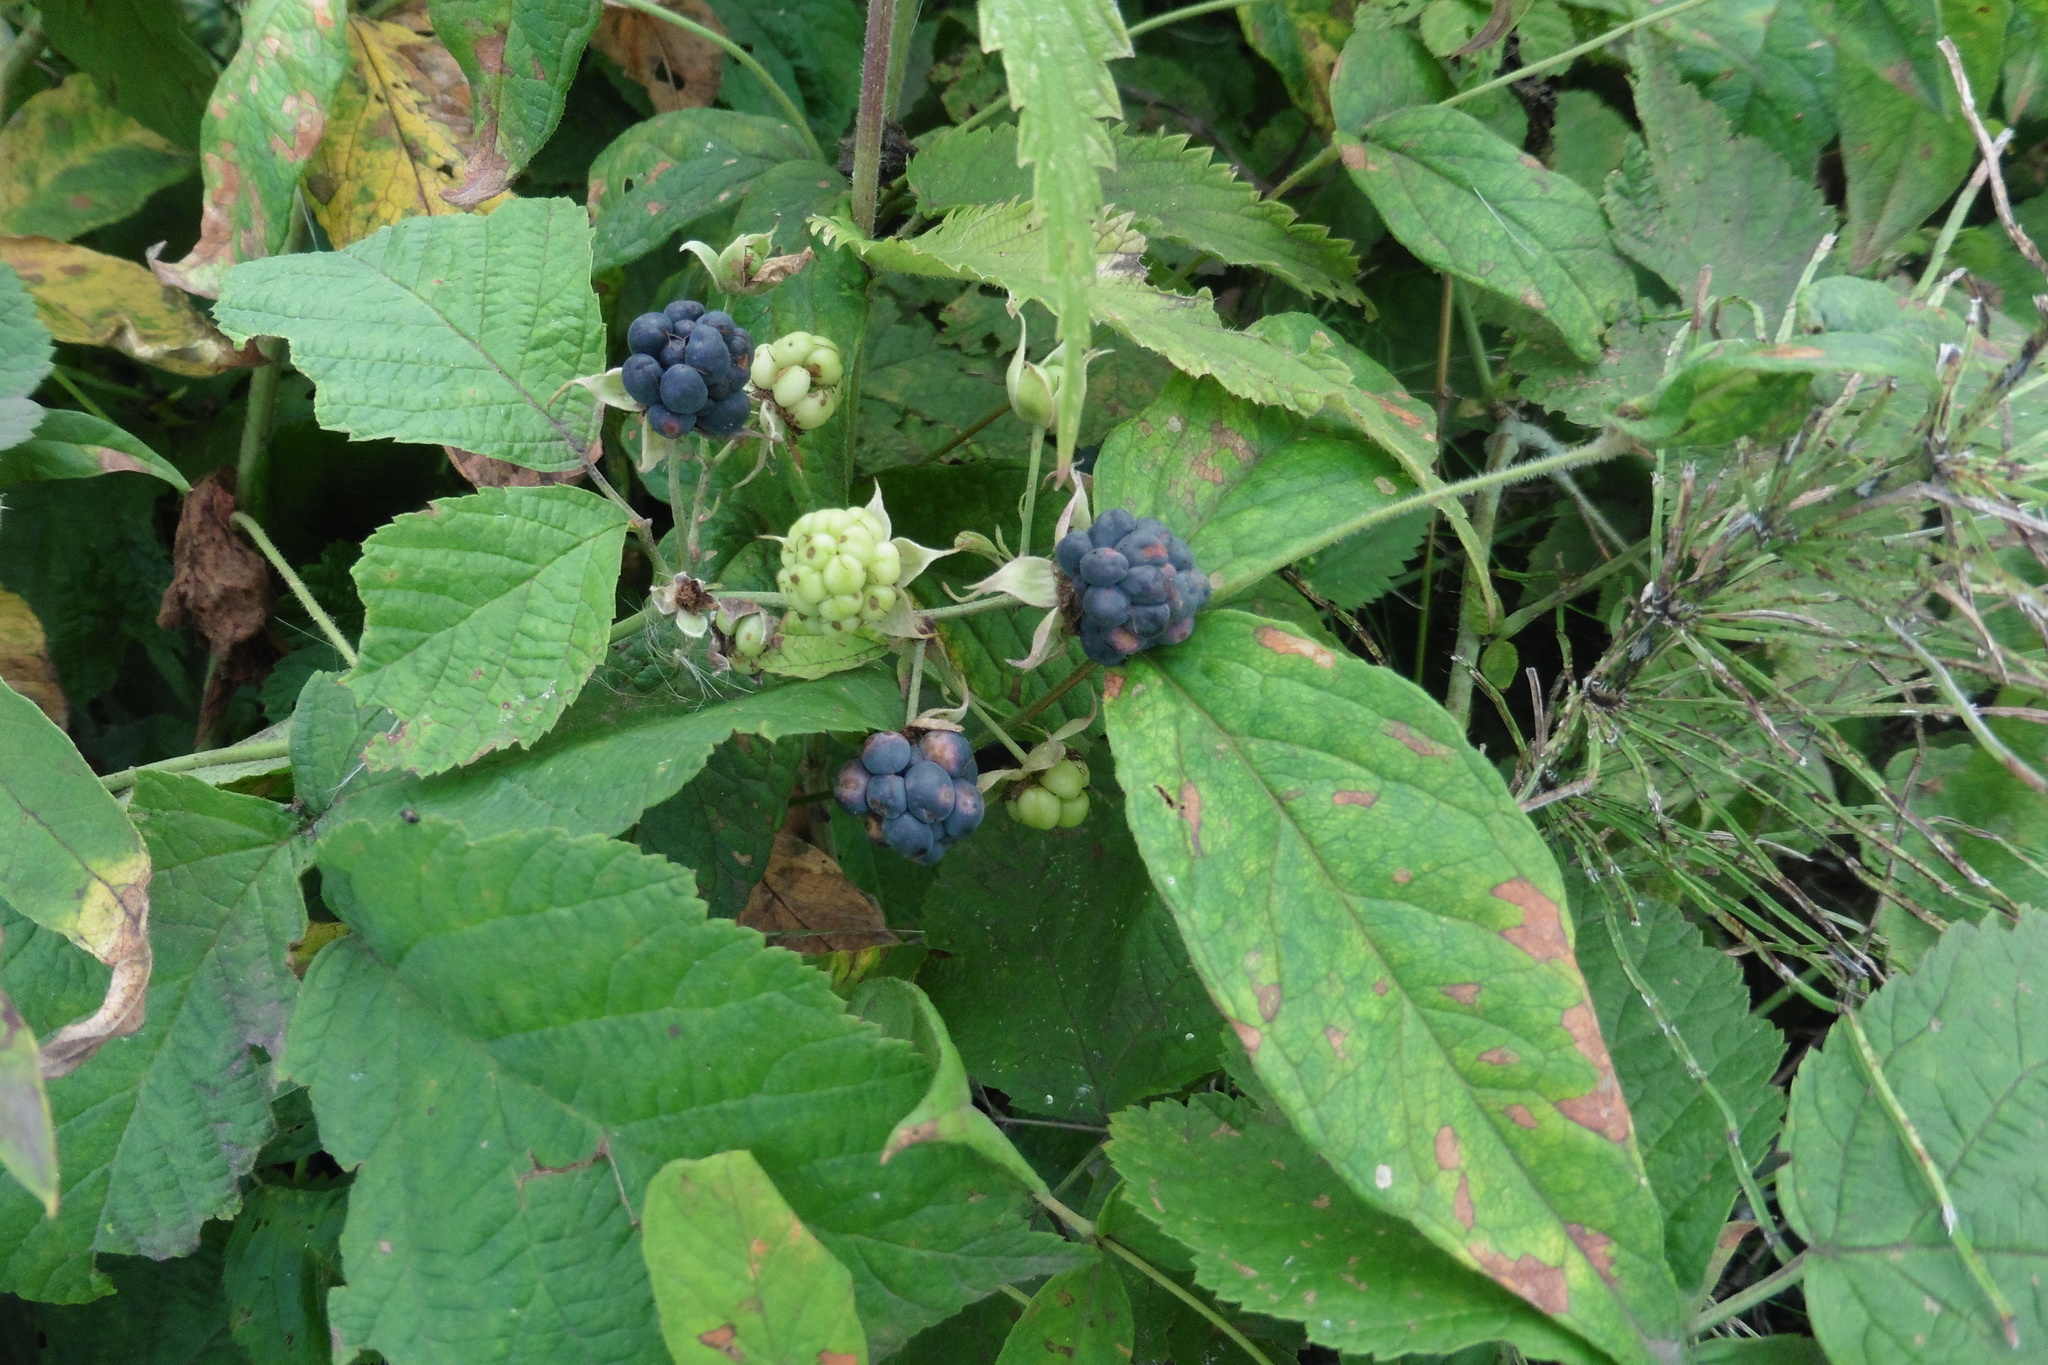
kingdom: Plantae
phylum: Tracheophyta
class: Magnoliopsida
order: Rosales
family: Rosaceae
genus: Rubus
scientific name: Rubus caesius
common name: Dewberry
